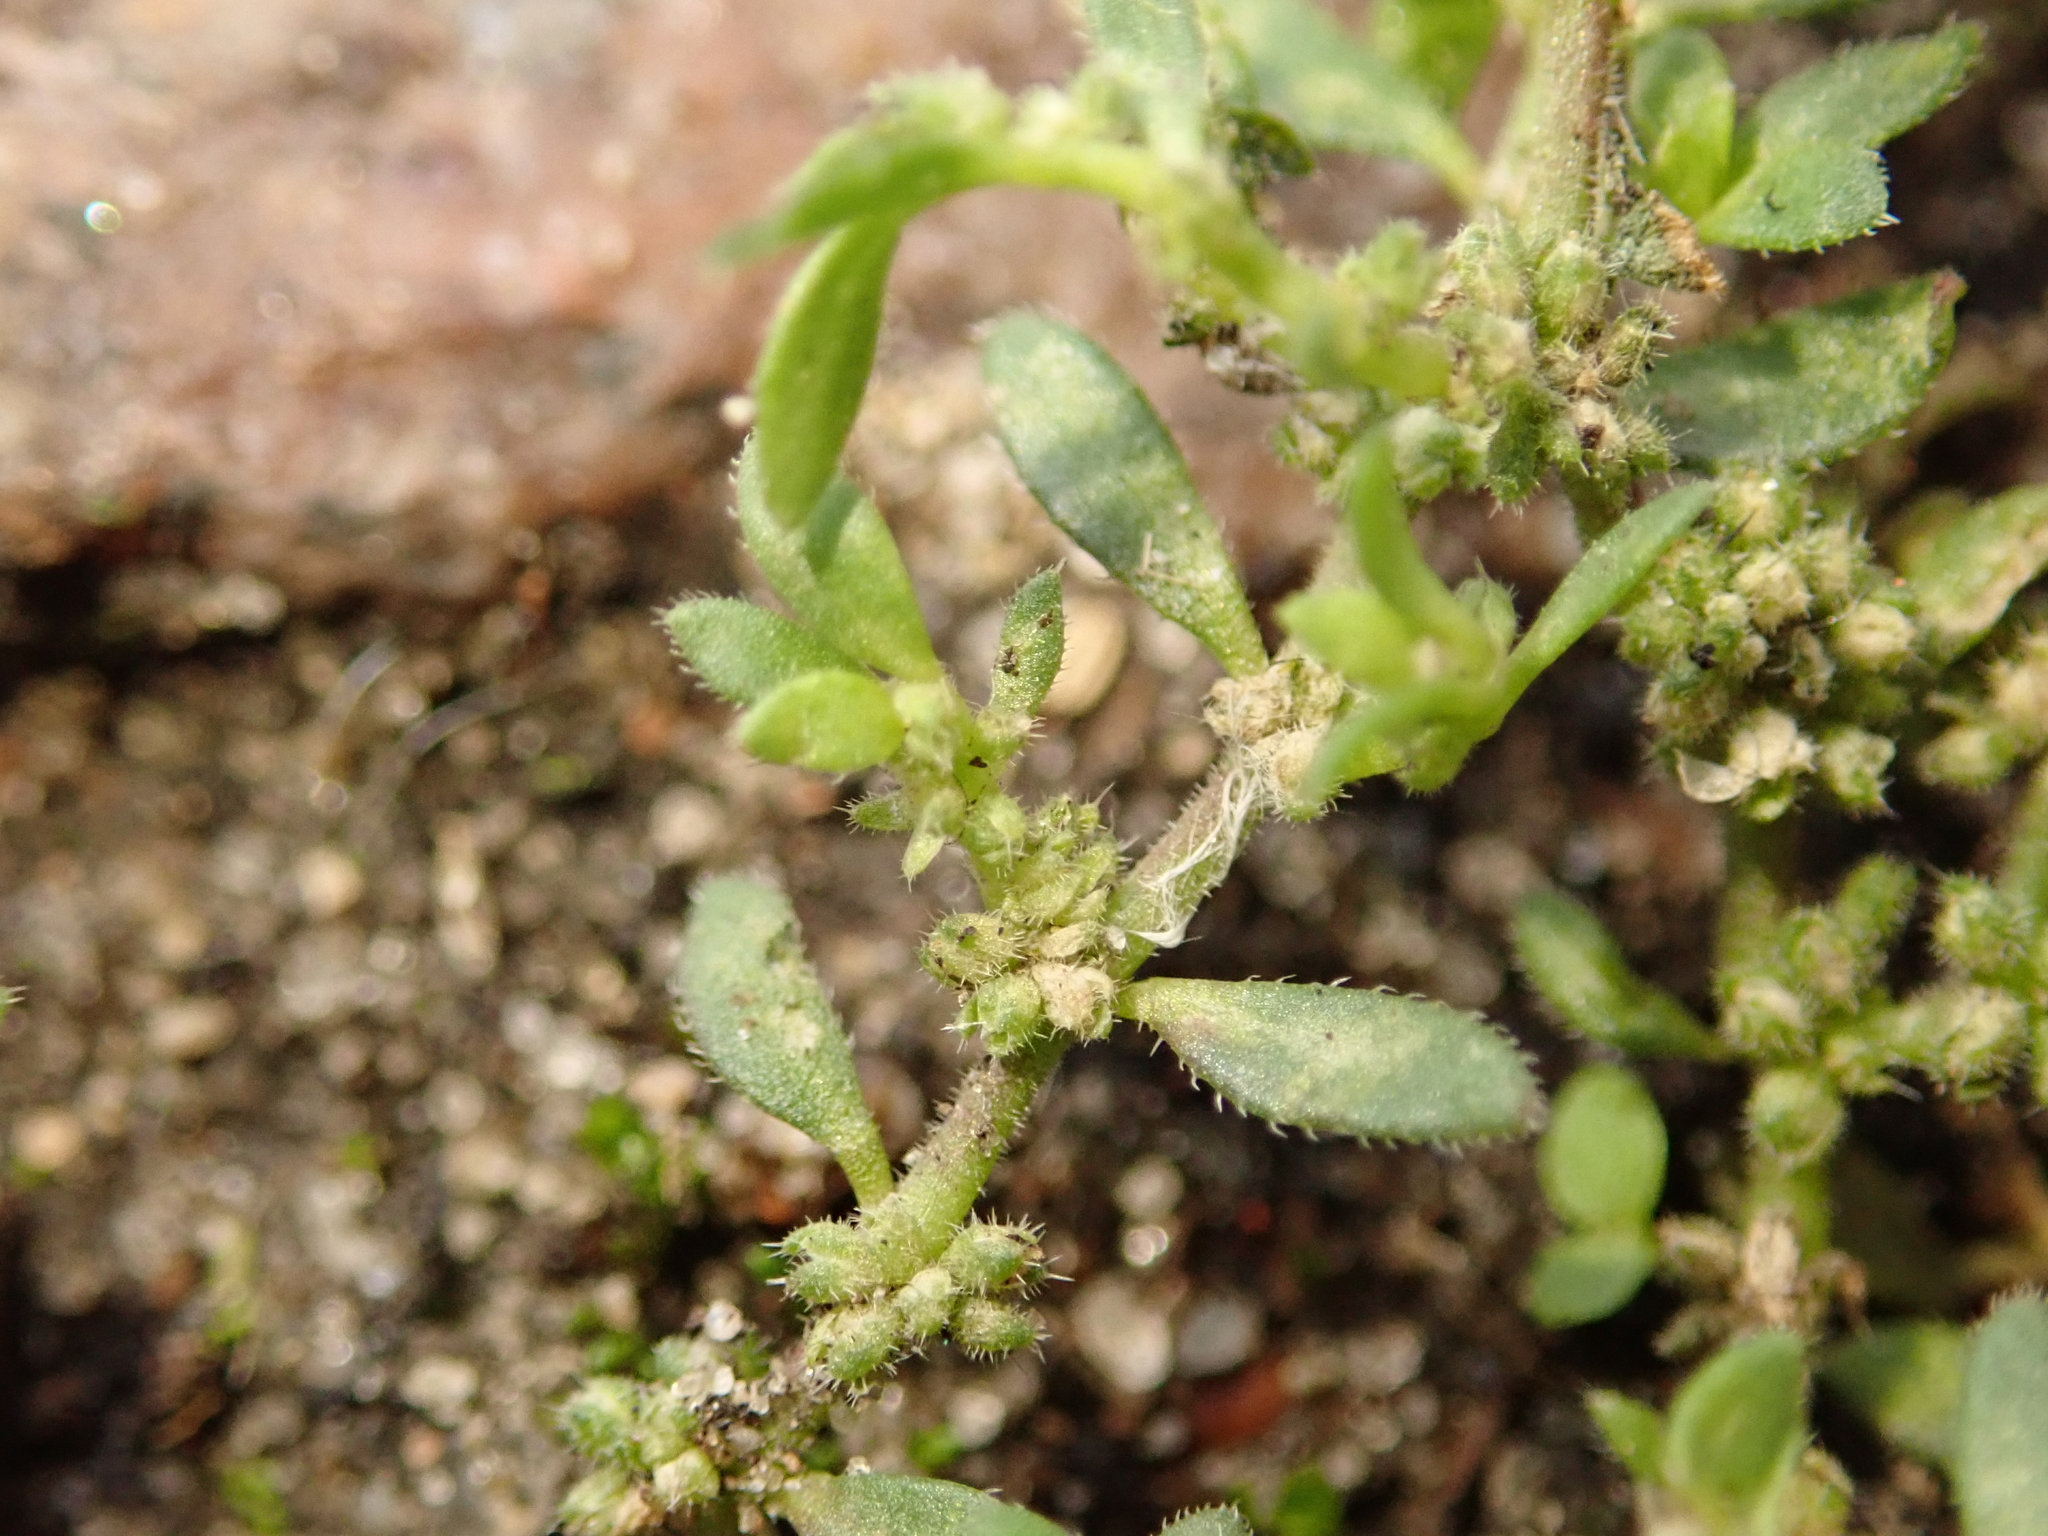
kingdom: Plantae
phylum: Tracheophyta
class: Magnoliopsida
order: Caryophyllales
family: Caryophyllaceae
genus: Herniaria
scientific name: Herniaria hirsuta
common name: Hairy rupturewort
